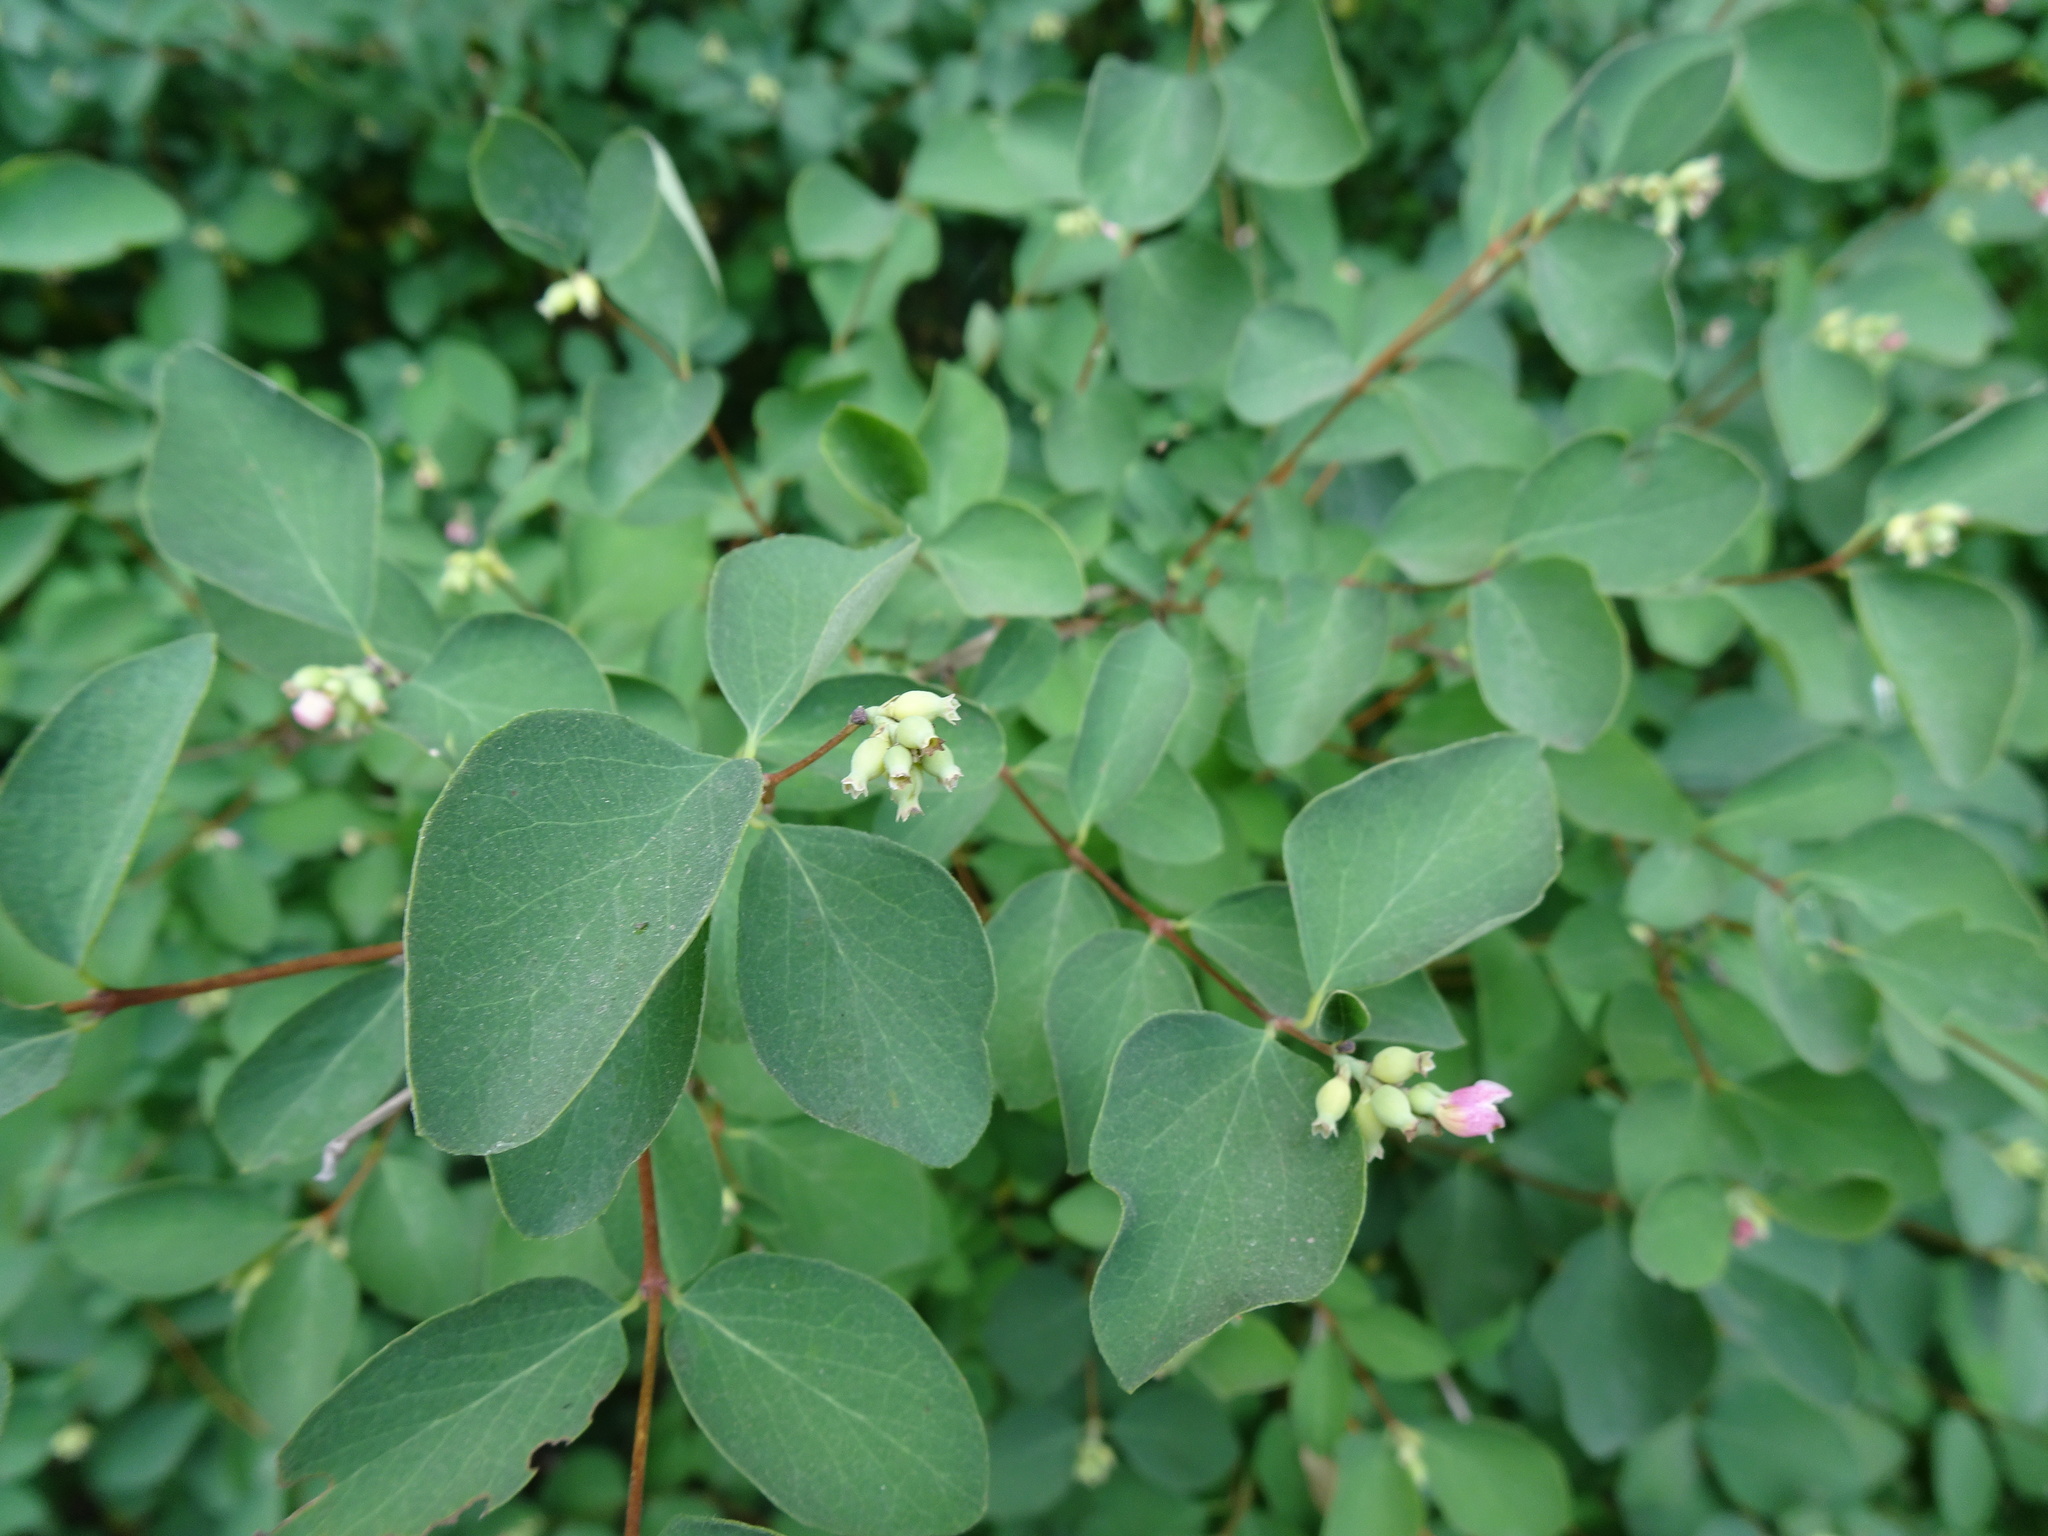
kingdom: Plantae
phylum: Tracheophyta
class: Magnoliopsida
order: Dipsacales
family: Caprifoliaceae
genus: Symphoricarpos
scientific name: Symphoricarpos albus
